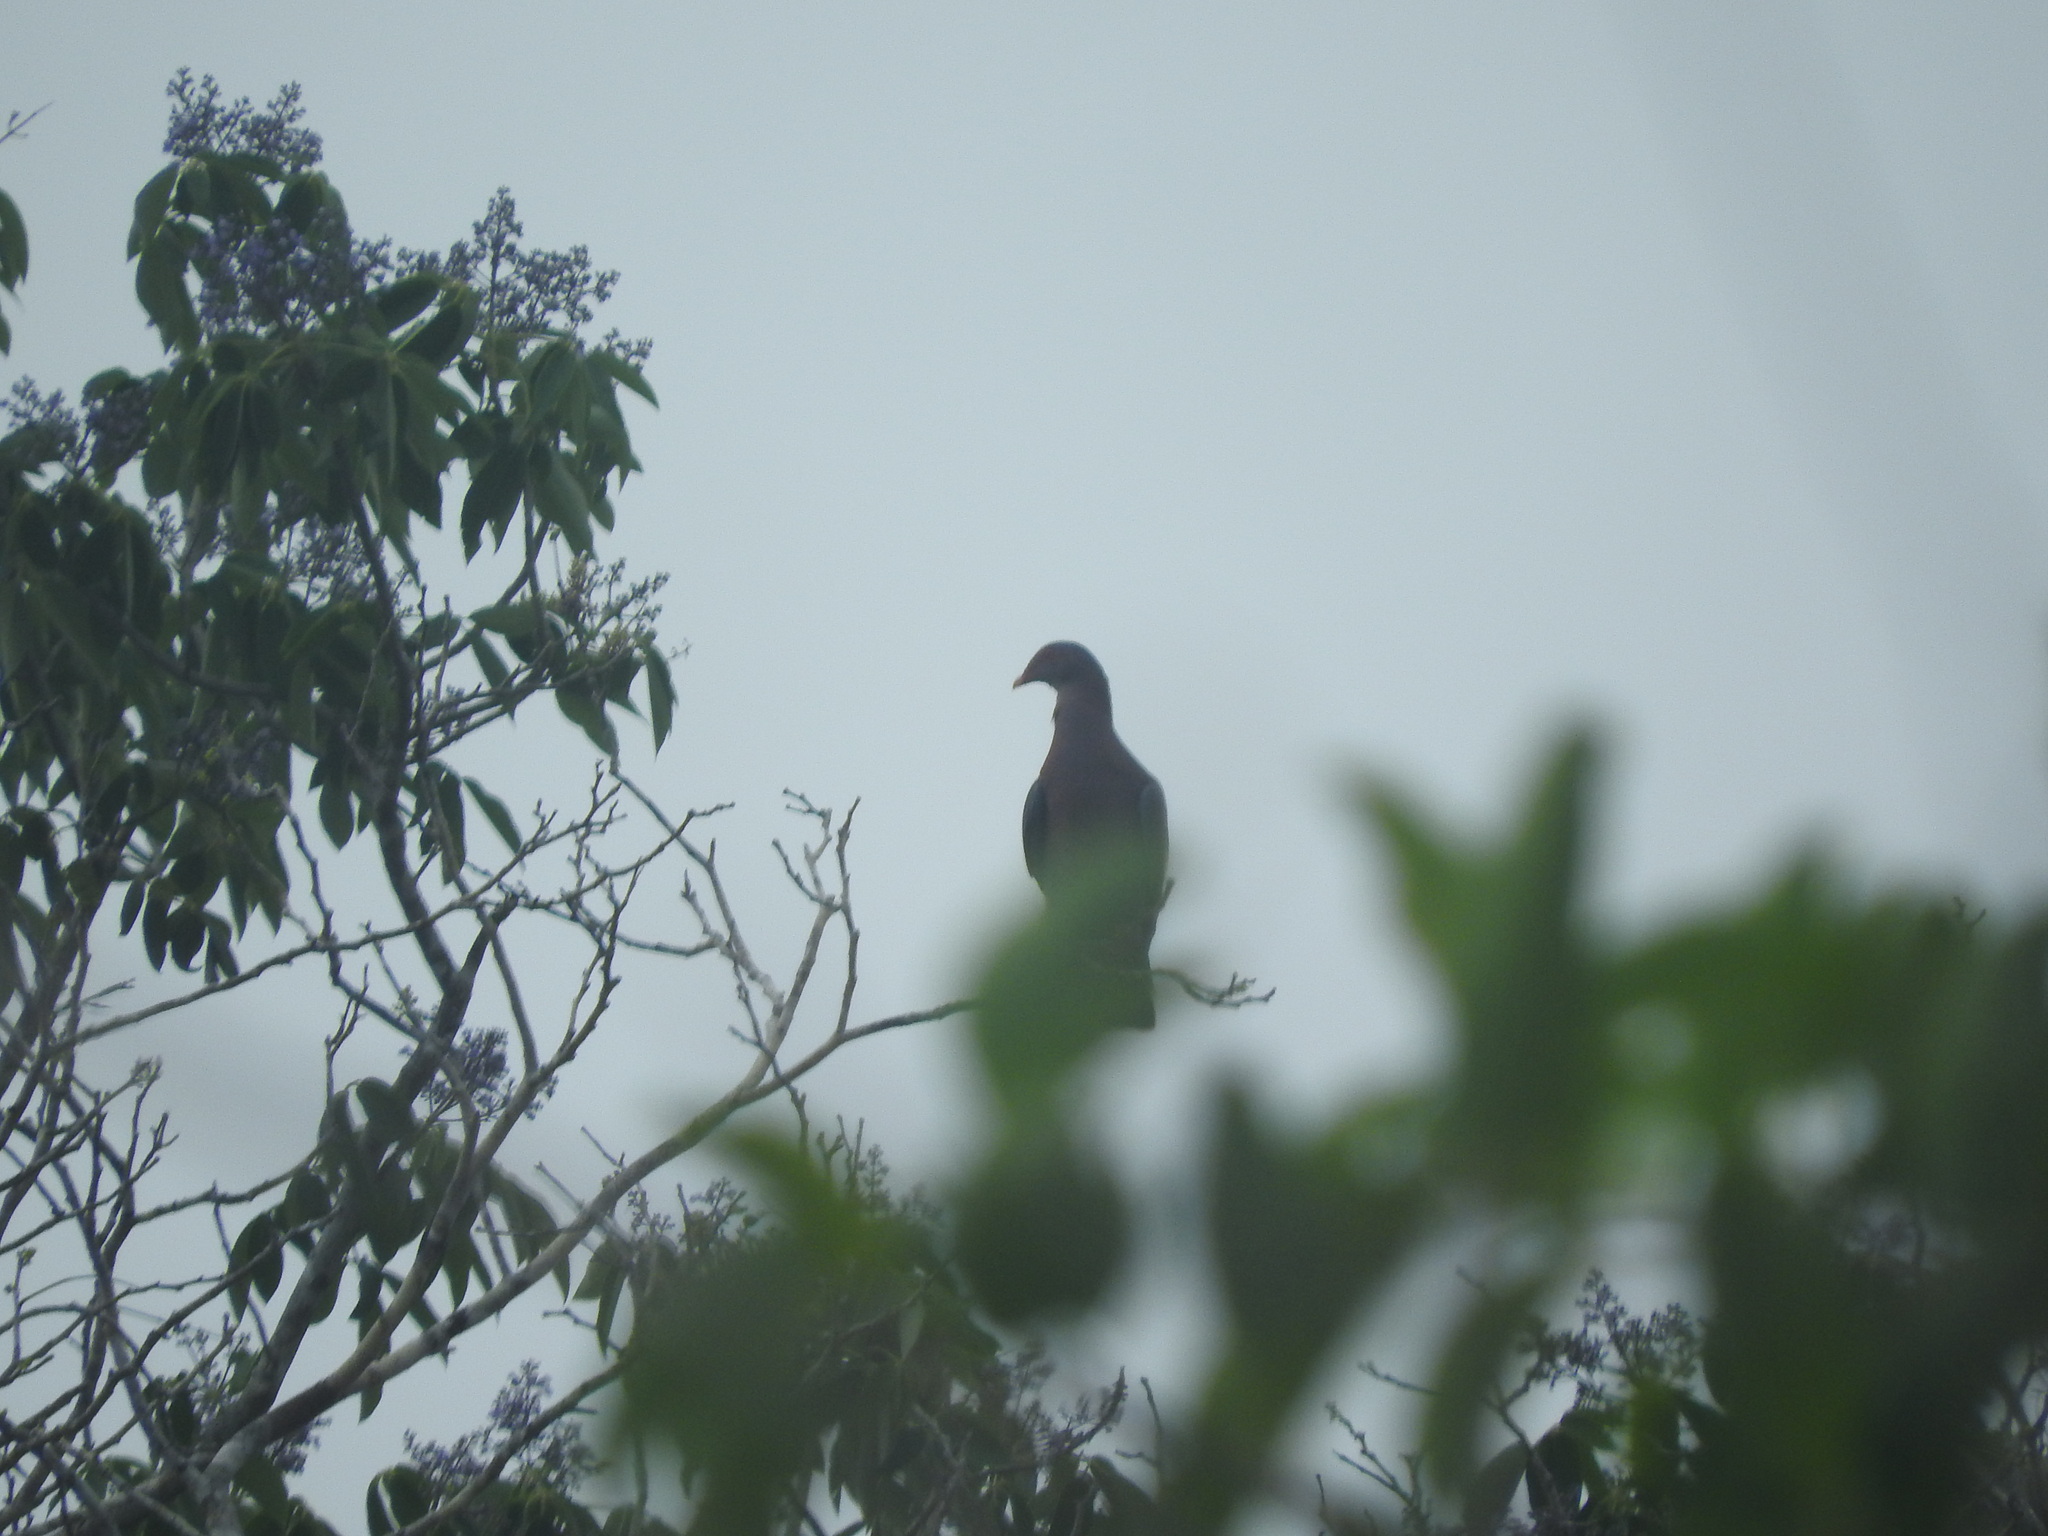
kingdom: Animalia
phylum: Chordata
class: Aves
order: Columbiformes
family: Columbidae
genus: Patagioenas
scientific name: Patagioenas flavirostris
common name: Red-billed pigeon
